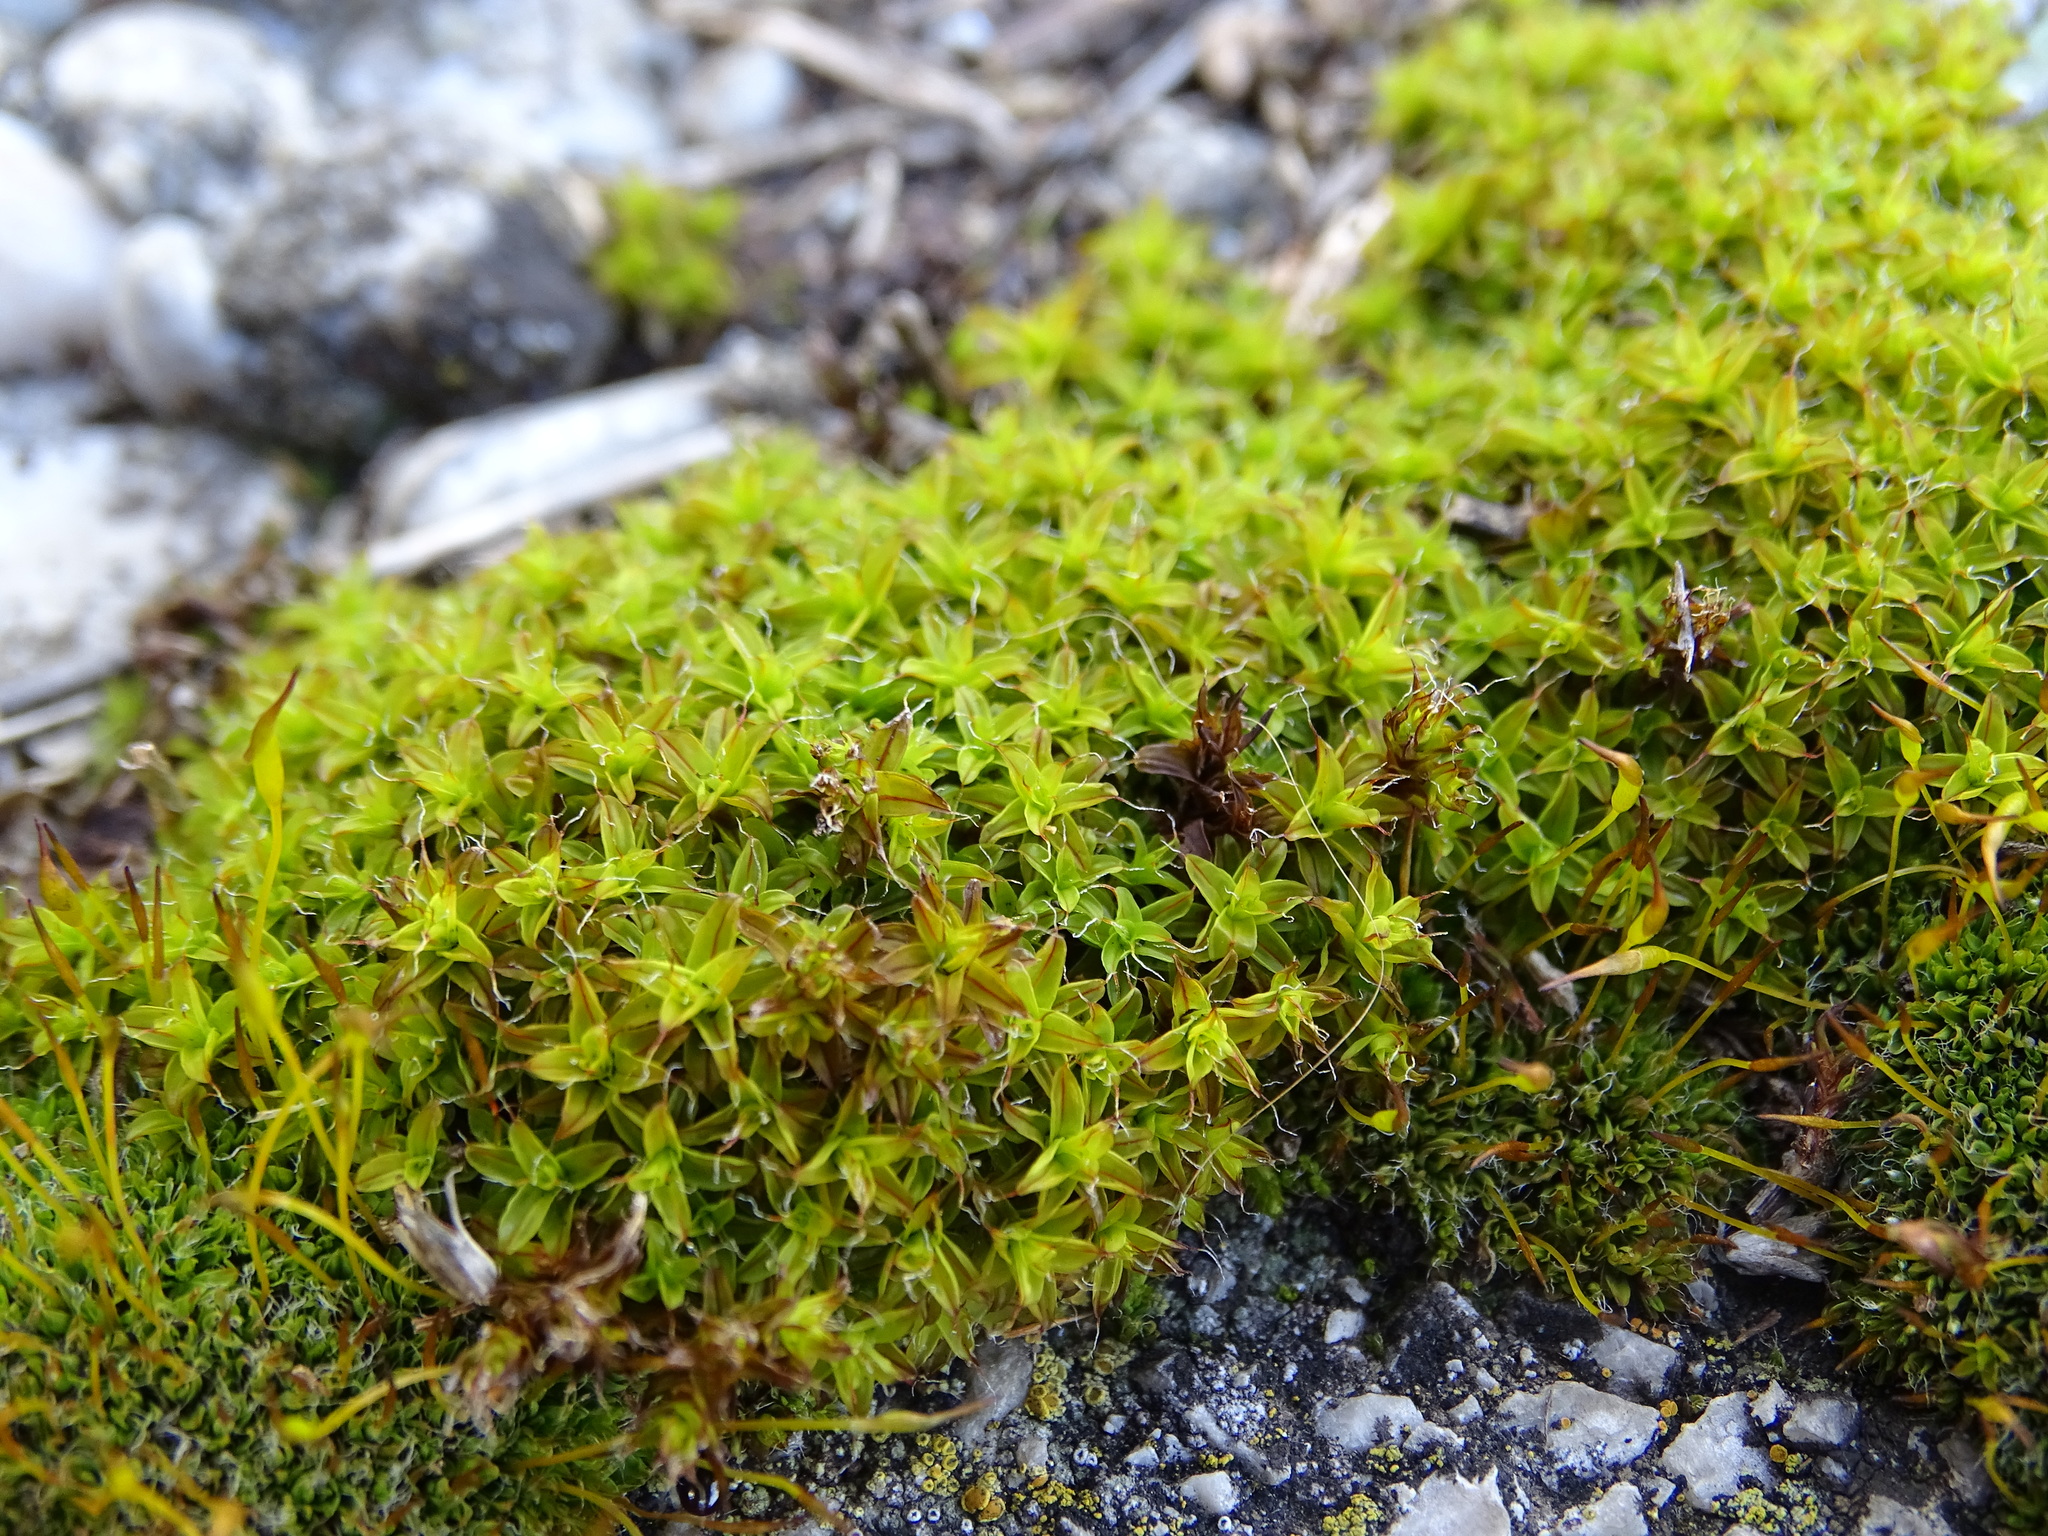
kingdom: Plantae
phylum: Bryophyta
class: Bryopsida
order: Pottiales
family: Pottiaceae
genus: Syntrichia
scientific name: Syntrichia ruralis
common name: Sidewalk screw moss
